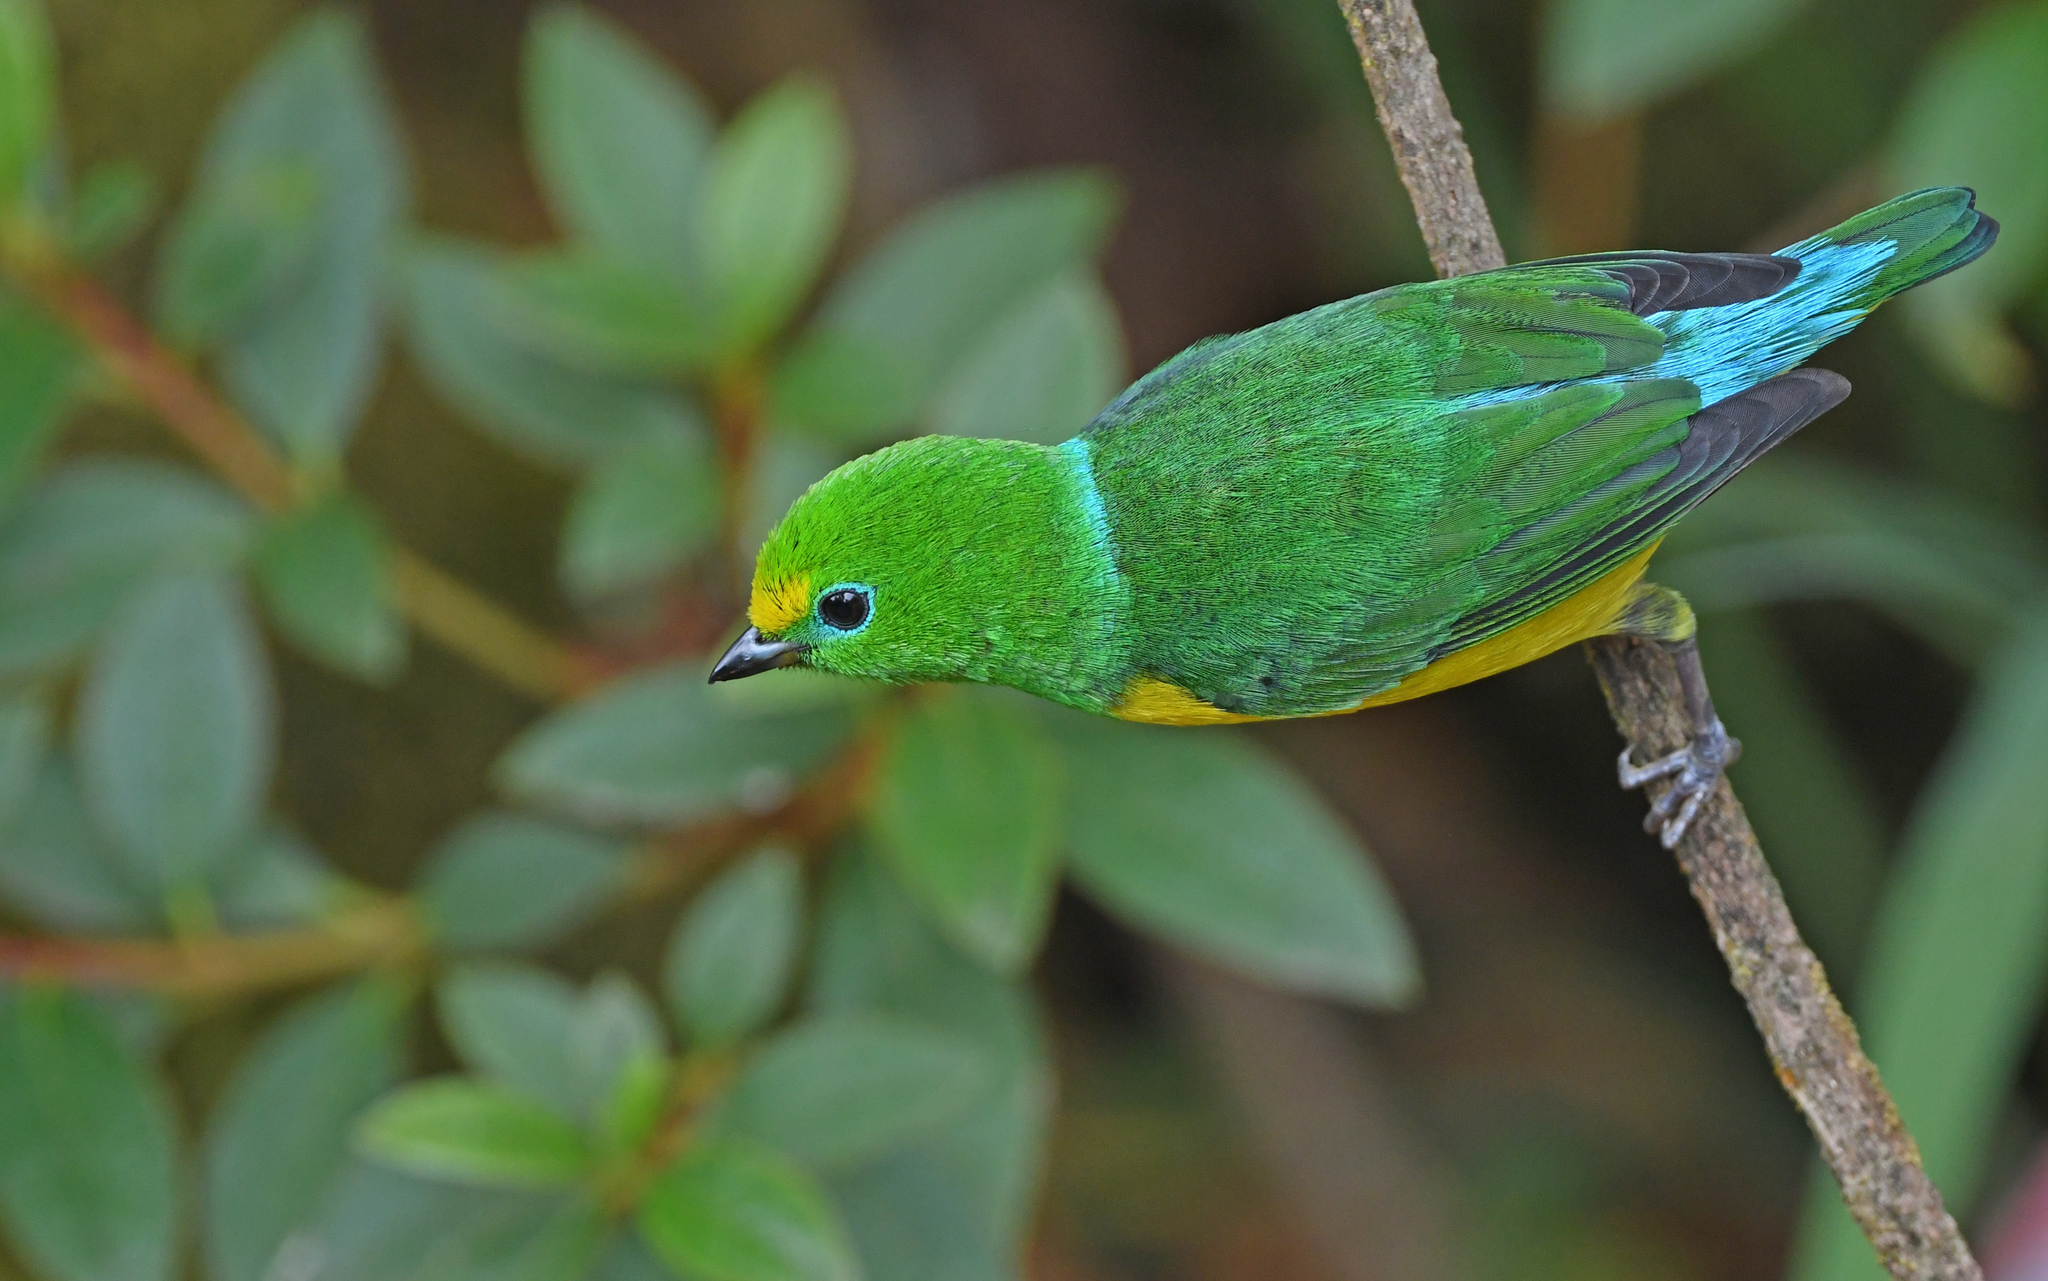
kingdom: Animalia
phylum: Chordata
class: Aves
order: Passeriformes
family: Fringillidae
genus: Chlorophonia
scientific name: Chlorophonia cyanea
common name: Blue-naped chlorophonia
